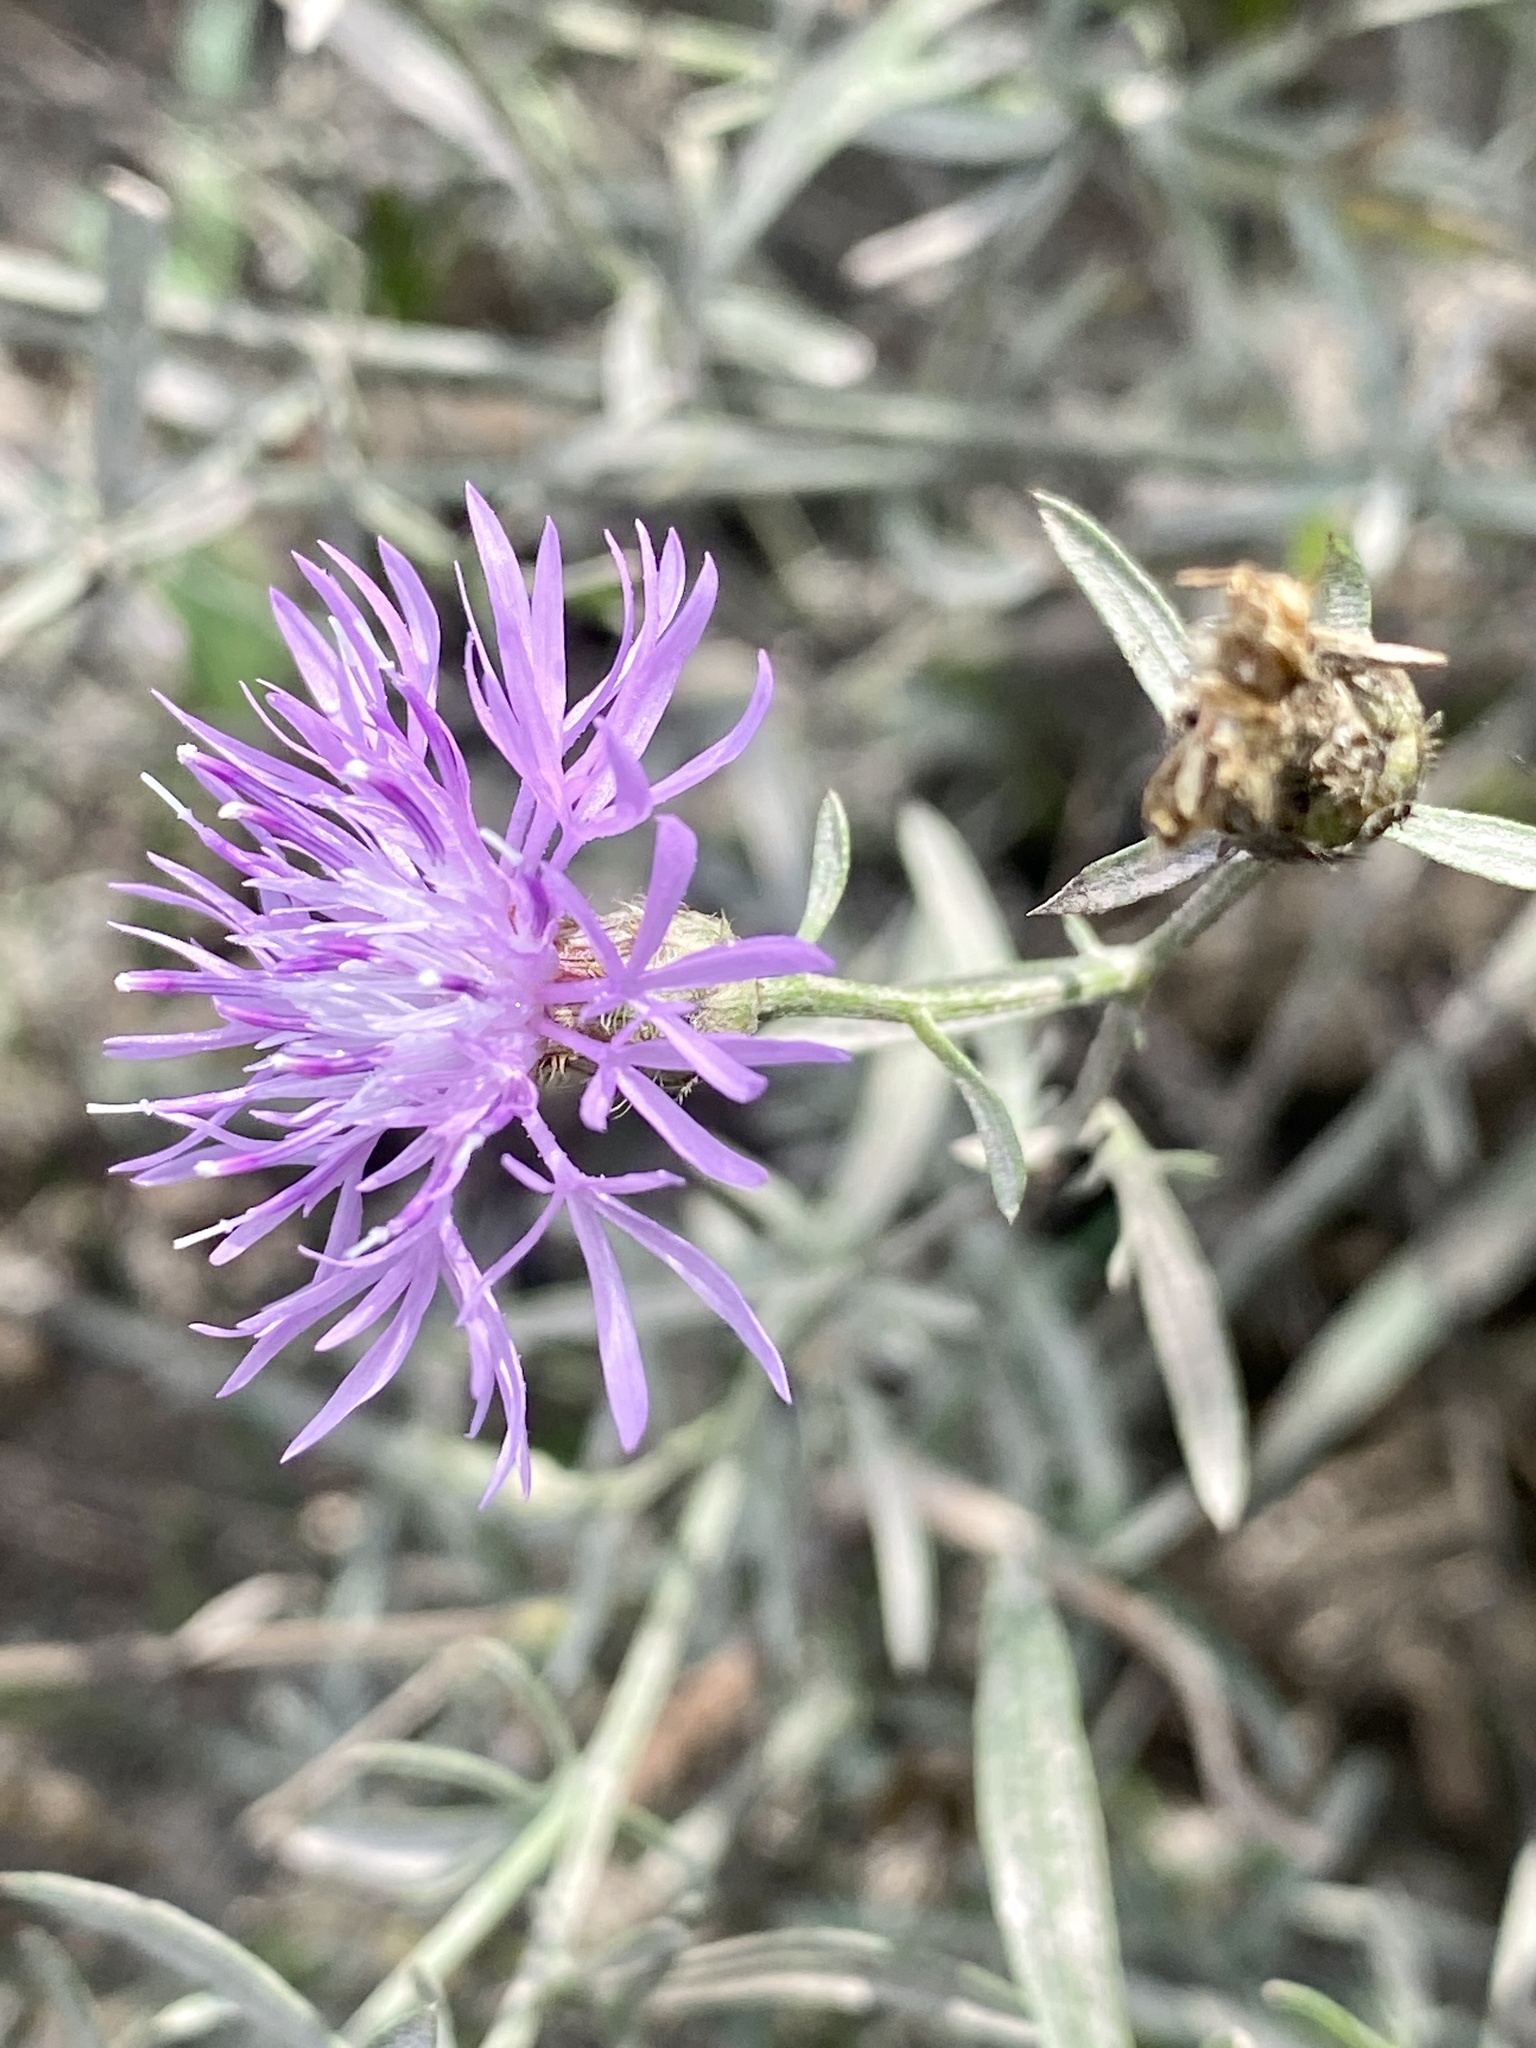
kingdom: Plantae
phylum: Tracheophyta
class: Magnoliopsida
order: Asterales
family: Asteraceae
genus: Centaurea
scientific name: Centaurea stoebe
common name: Spotted knapweed
